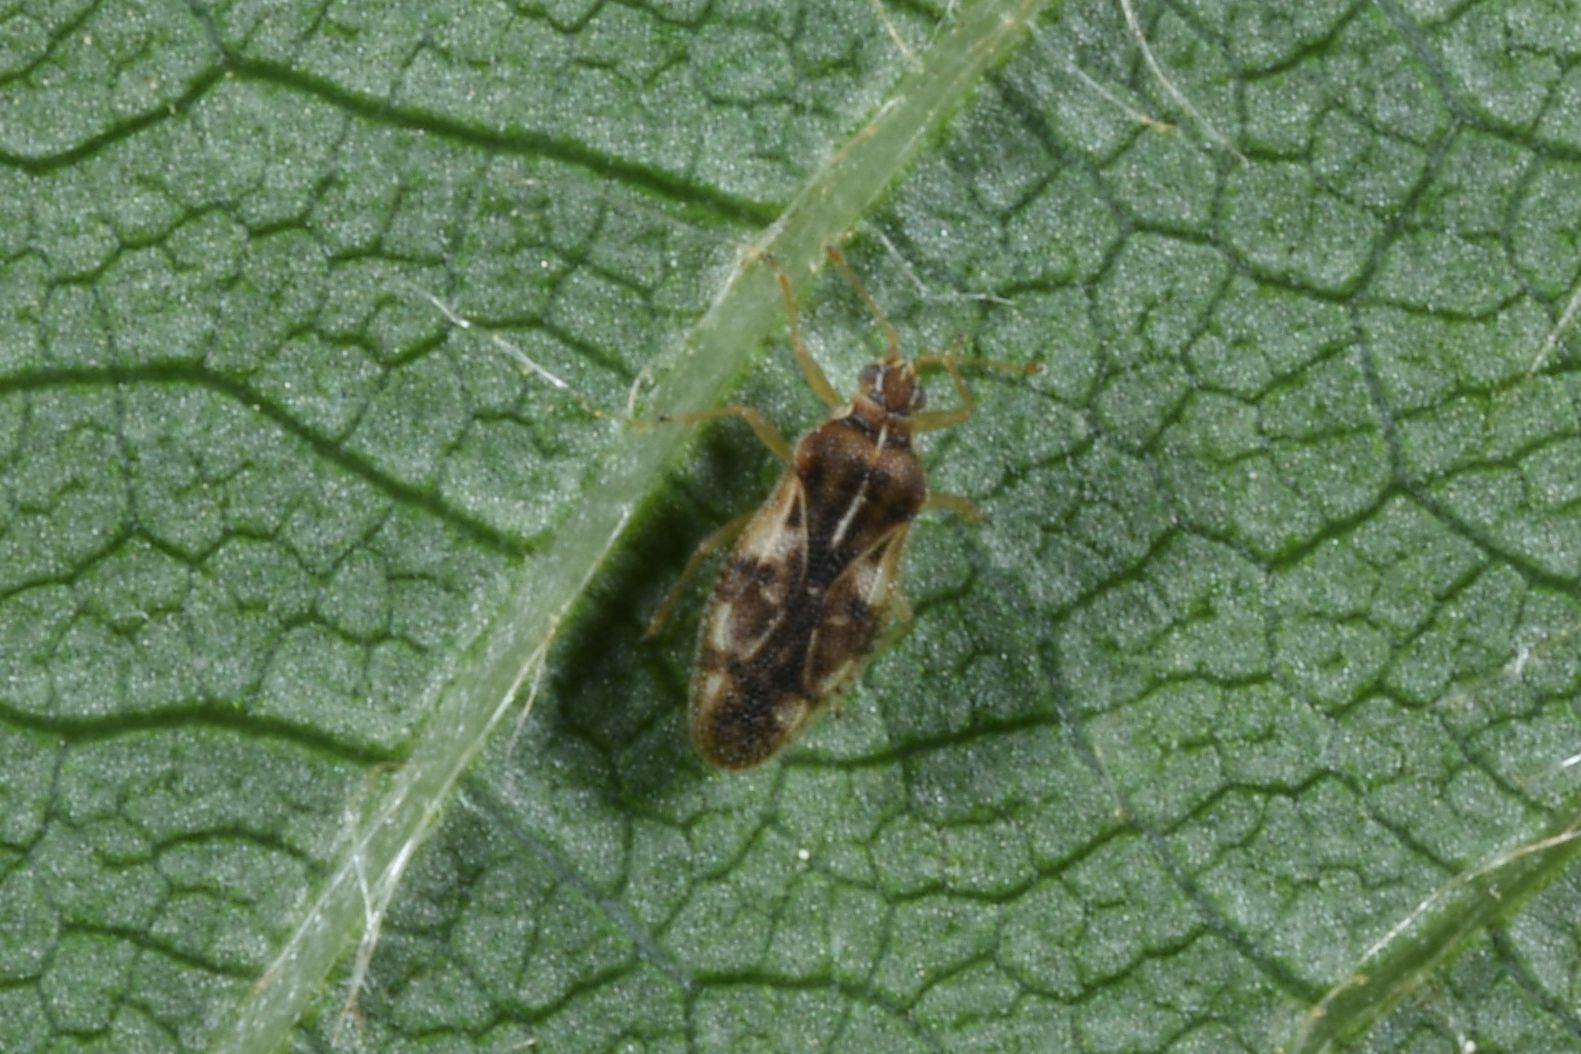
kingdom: Animalia
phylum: Arthropoda
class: Insecta
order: Hemiptera
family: Tingidae
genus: Monosteira
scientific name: Monosteira unicostata
